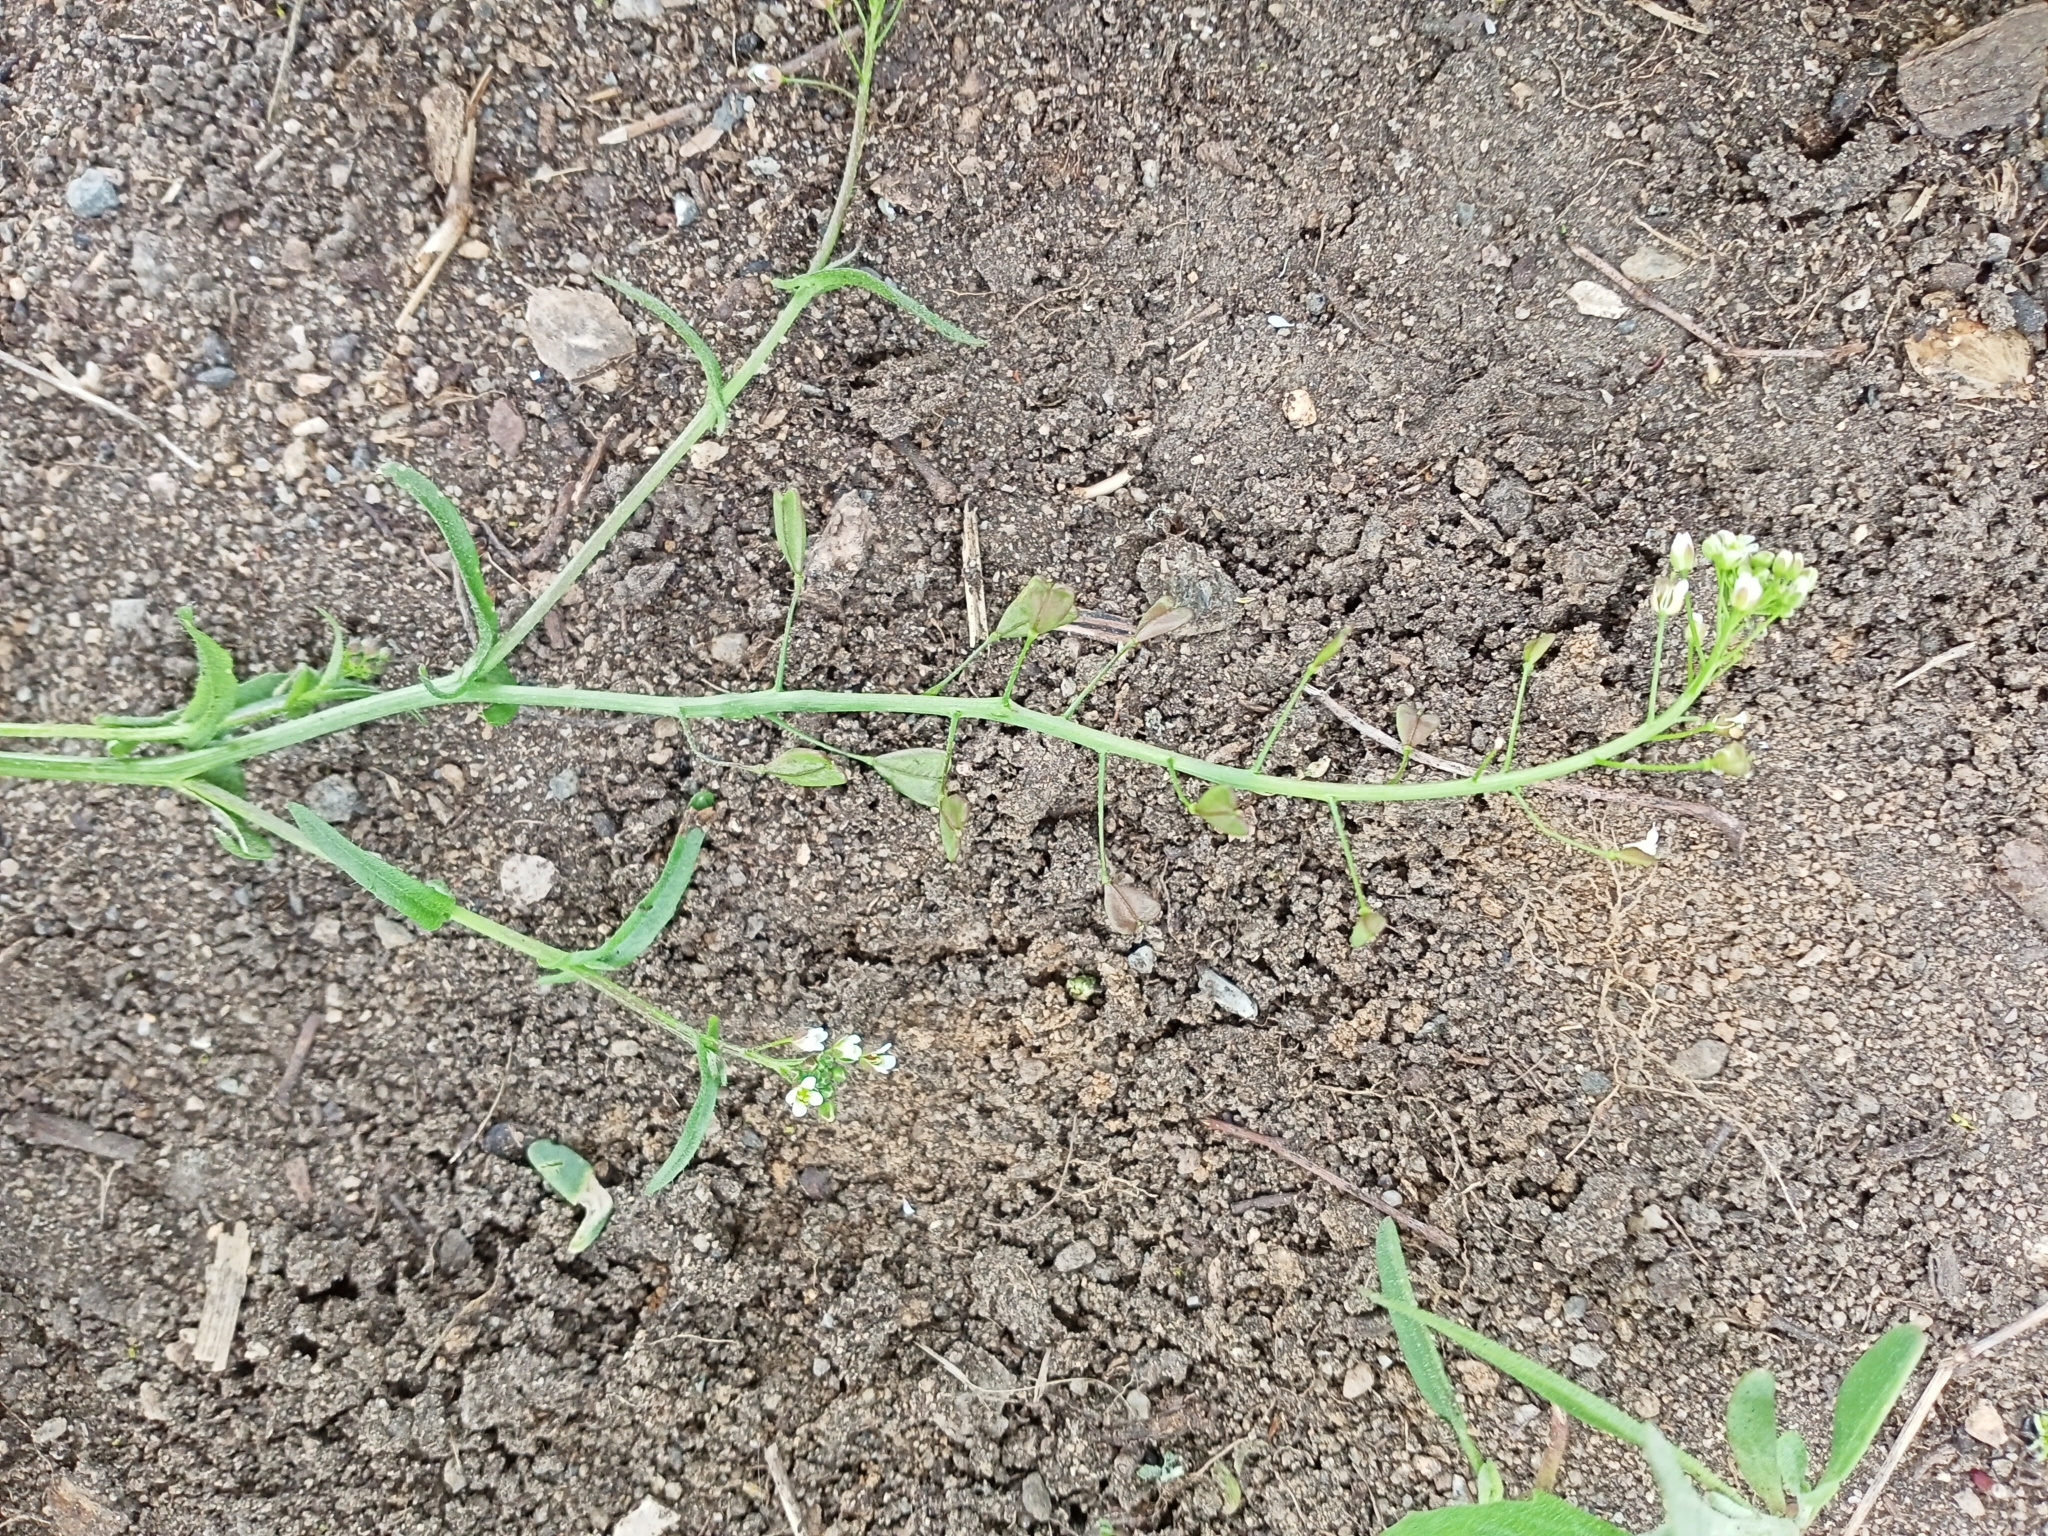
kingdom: Plantae
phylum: Tracheophyta
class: Magnoliopsida
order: Brassicales
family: Brassicaceae
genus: Capsella
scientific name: Capsella bursa-pastoris
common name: Shepherd's purse
